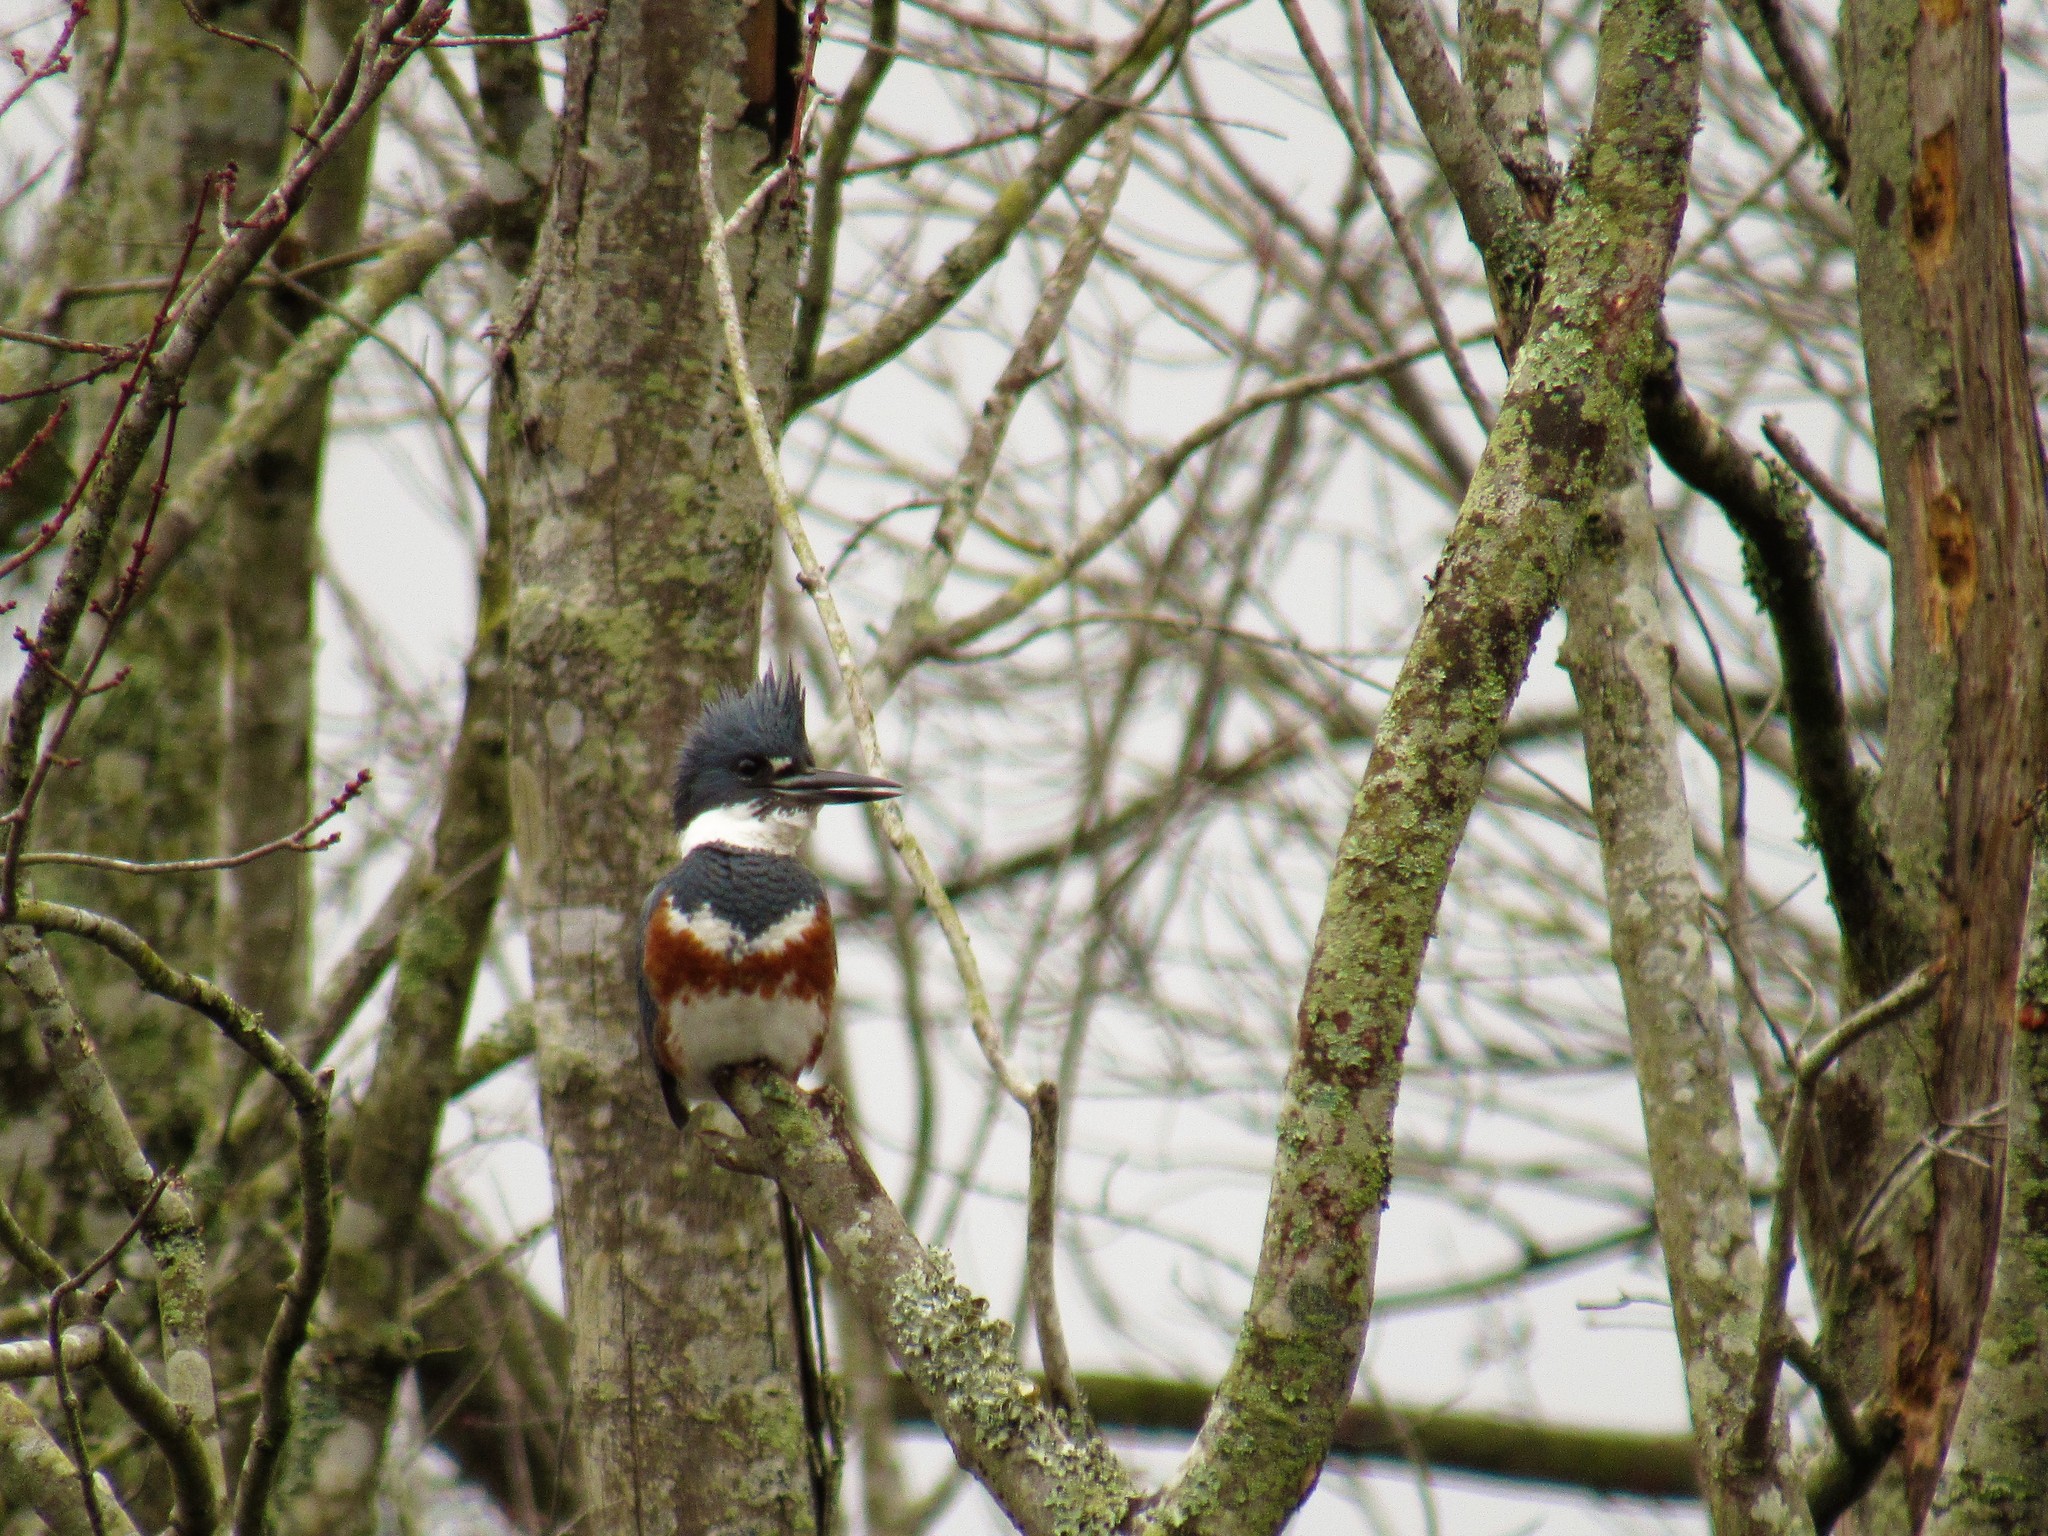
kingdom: Animalia
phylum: Chordata
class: Aves
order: Coraciiformes
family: Alcedinidae
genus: Megaceryle
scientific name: Megaceryle alcyon
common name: Belted kingfisher
